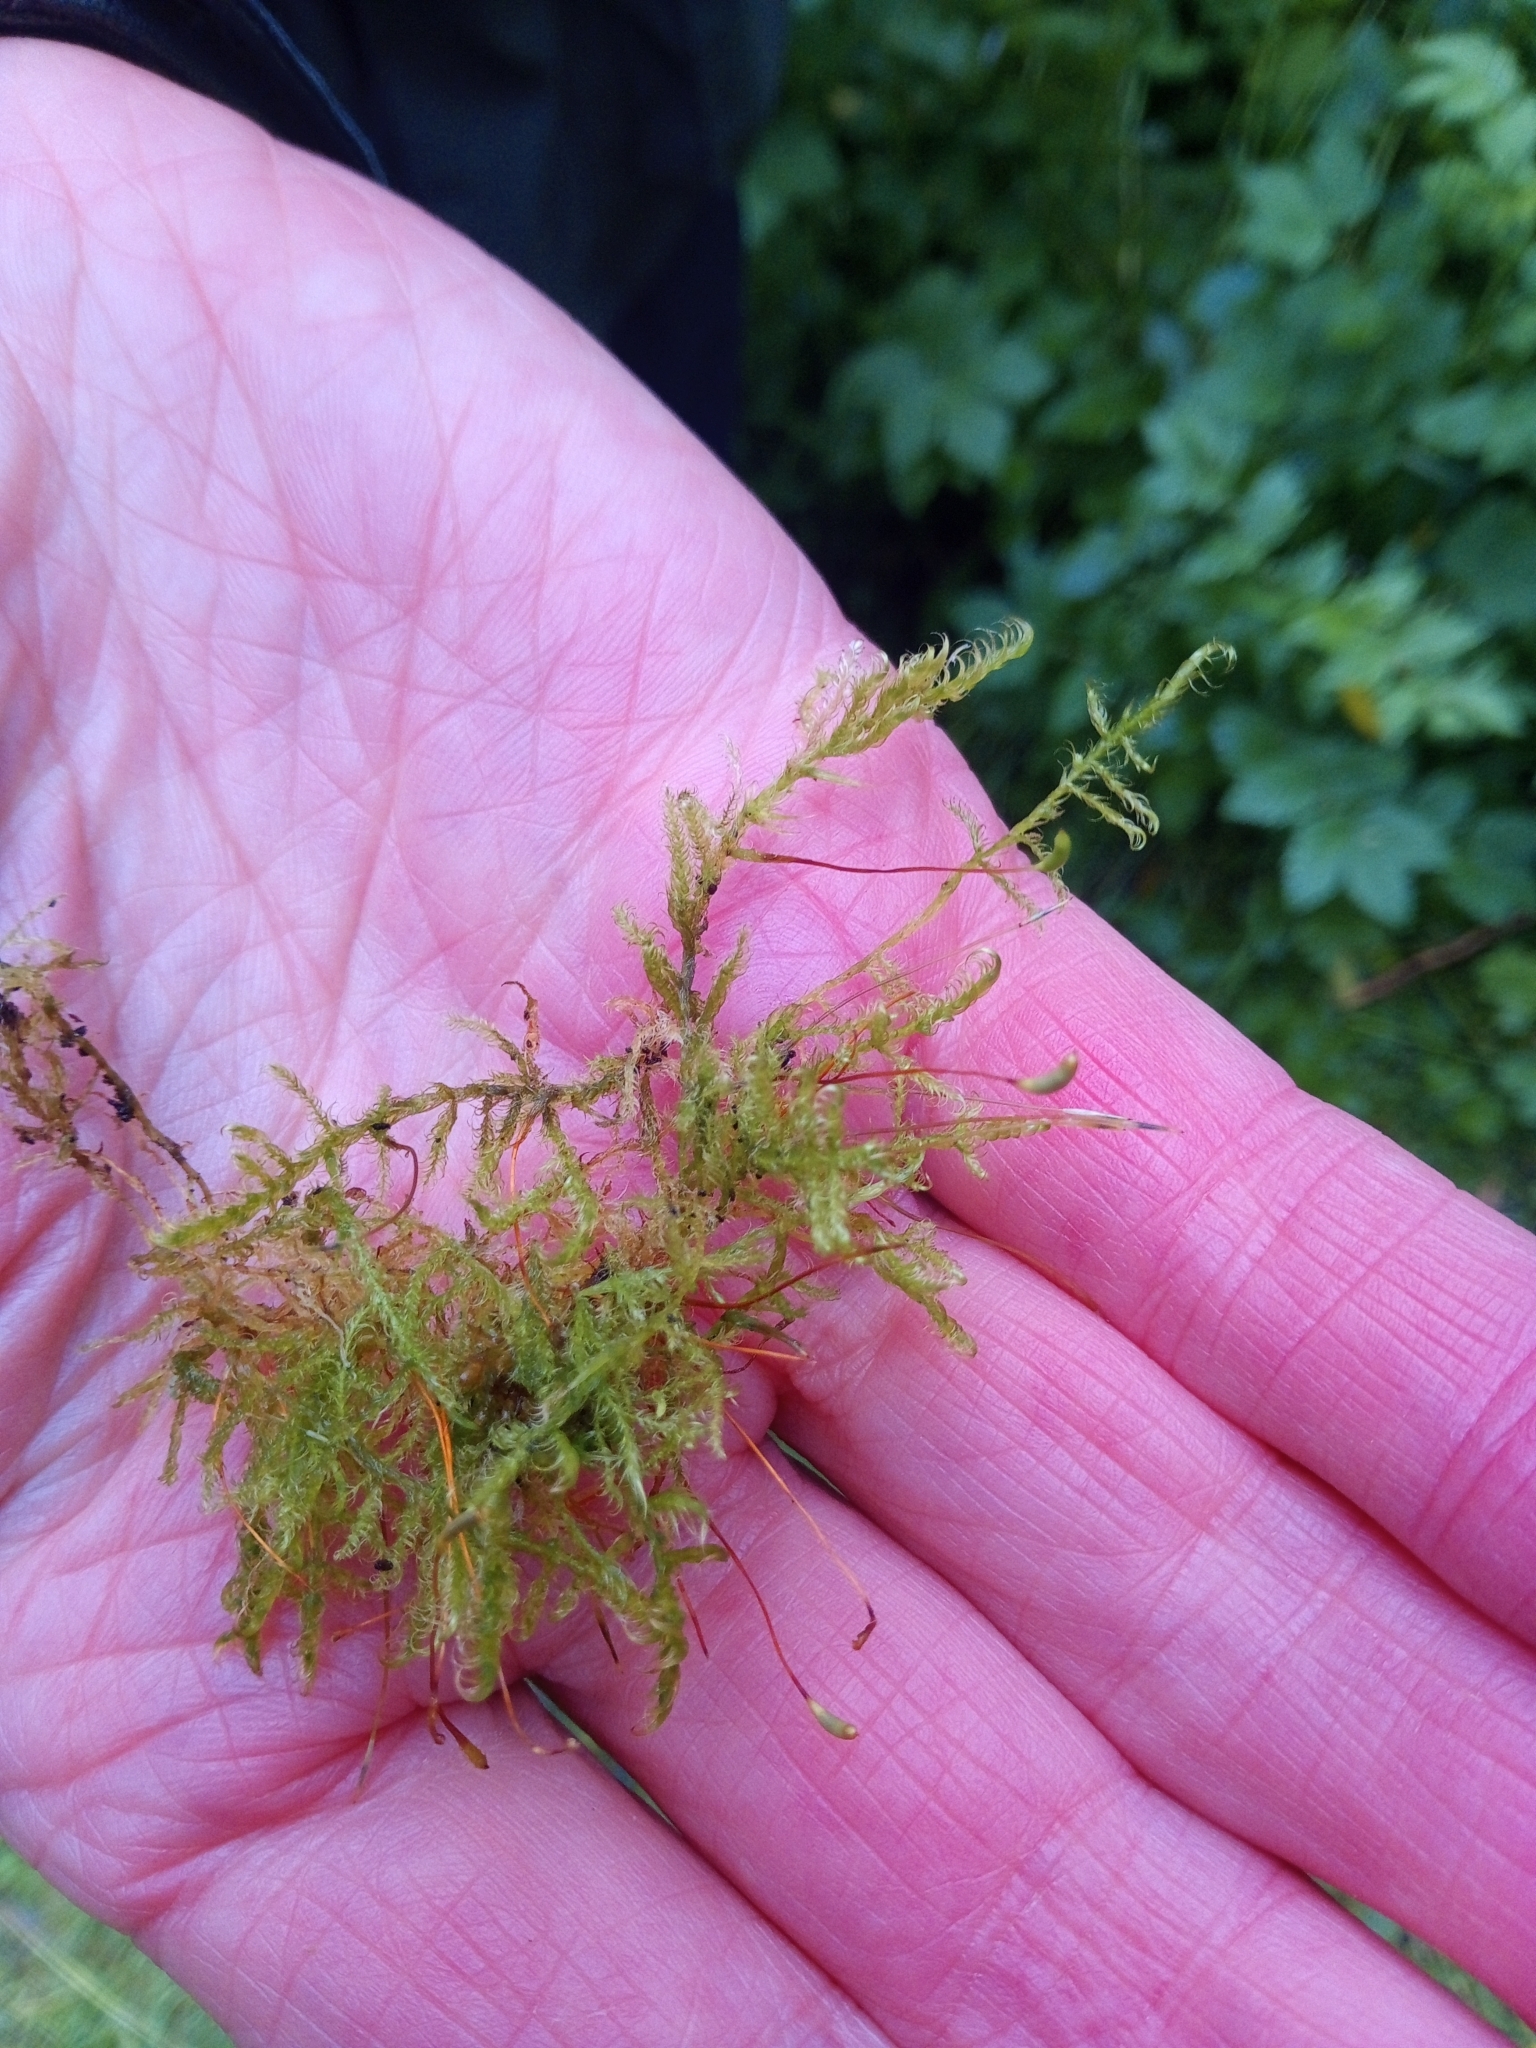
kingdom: Plantae
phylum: Bryophyta
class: Bryopsida
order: Hypnales
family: Scorpidiaceae
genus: Sanionia
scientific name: Sanionia uncinata
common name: Sickle moss
